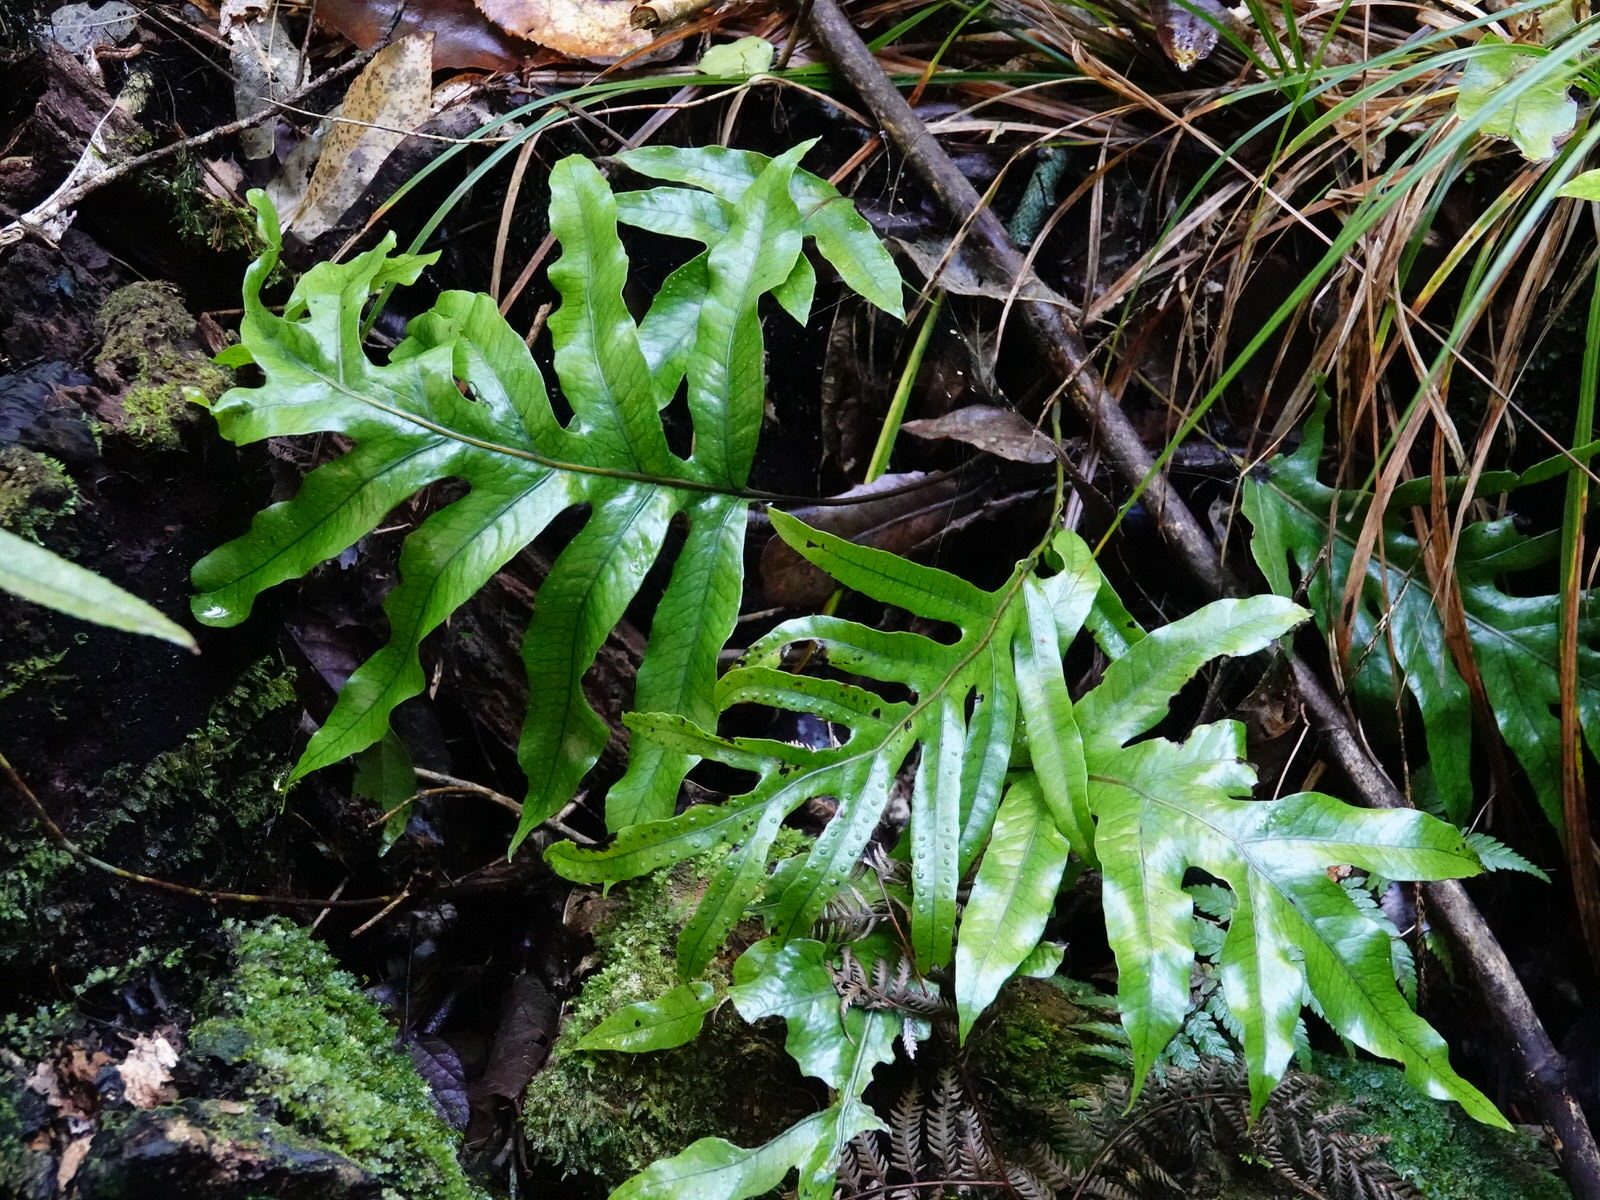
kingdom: Plantae
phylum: Tracheophyta
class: Polypodiopsida
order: Polypodiales
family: Polypodiaceae
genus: Lecanopteris
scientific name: Lecanopteris pustulata
